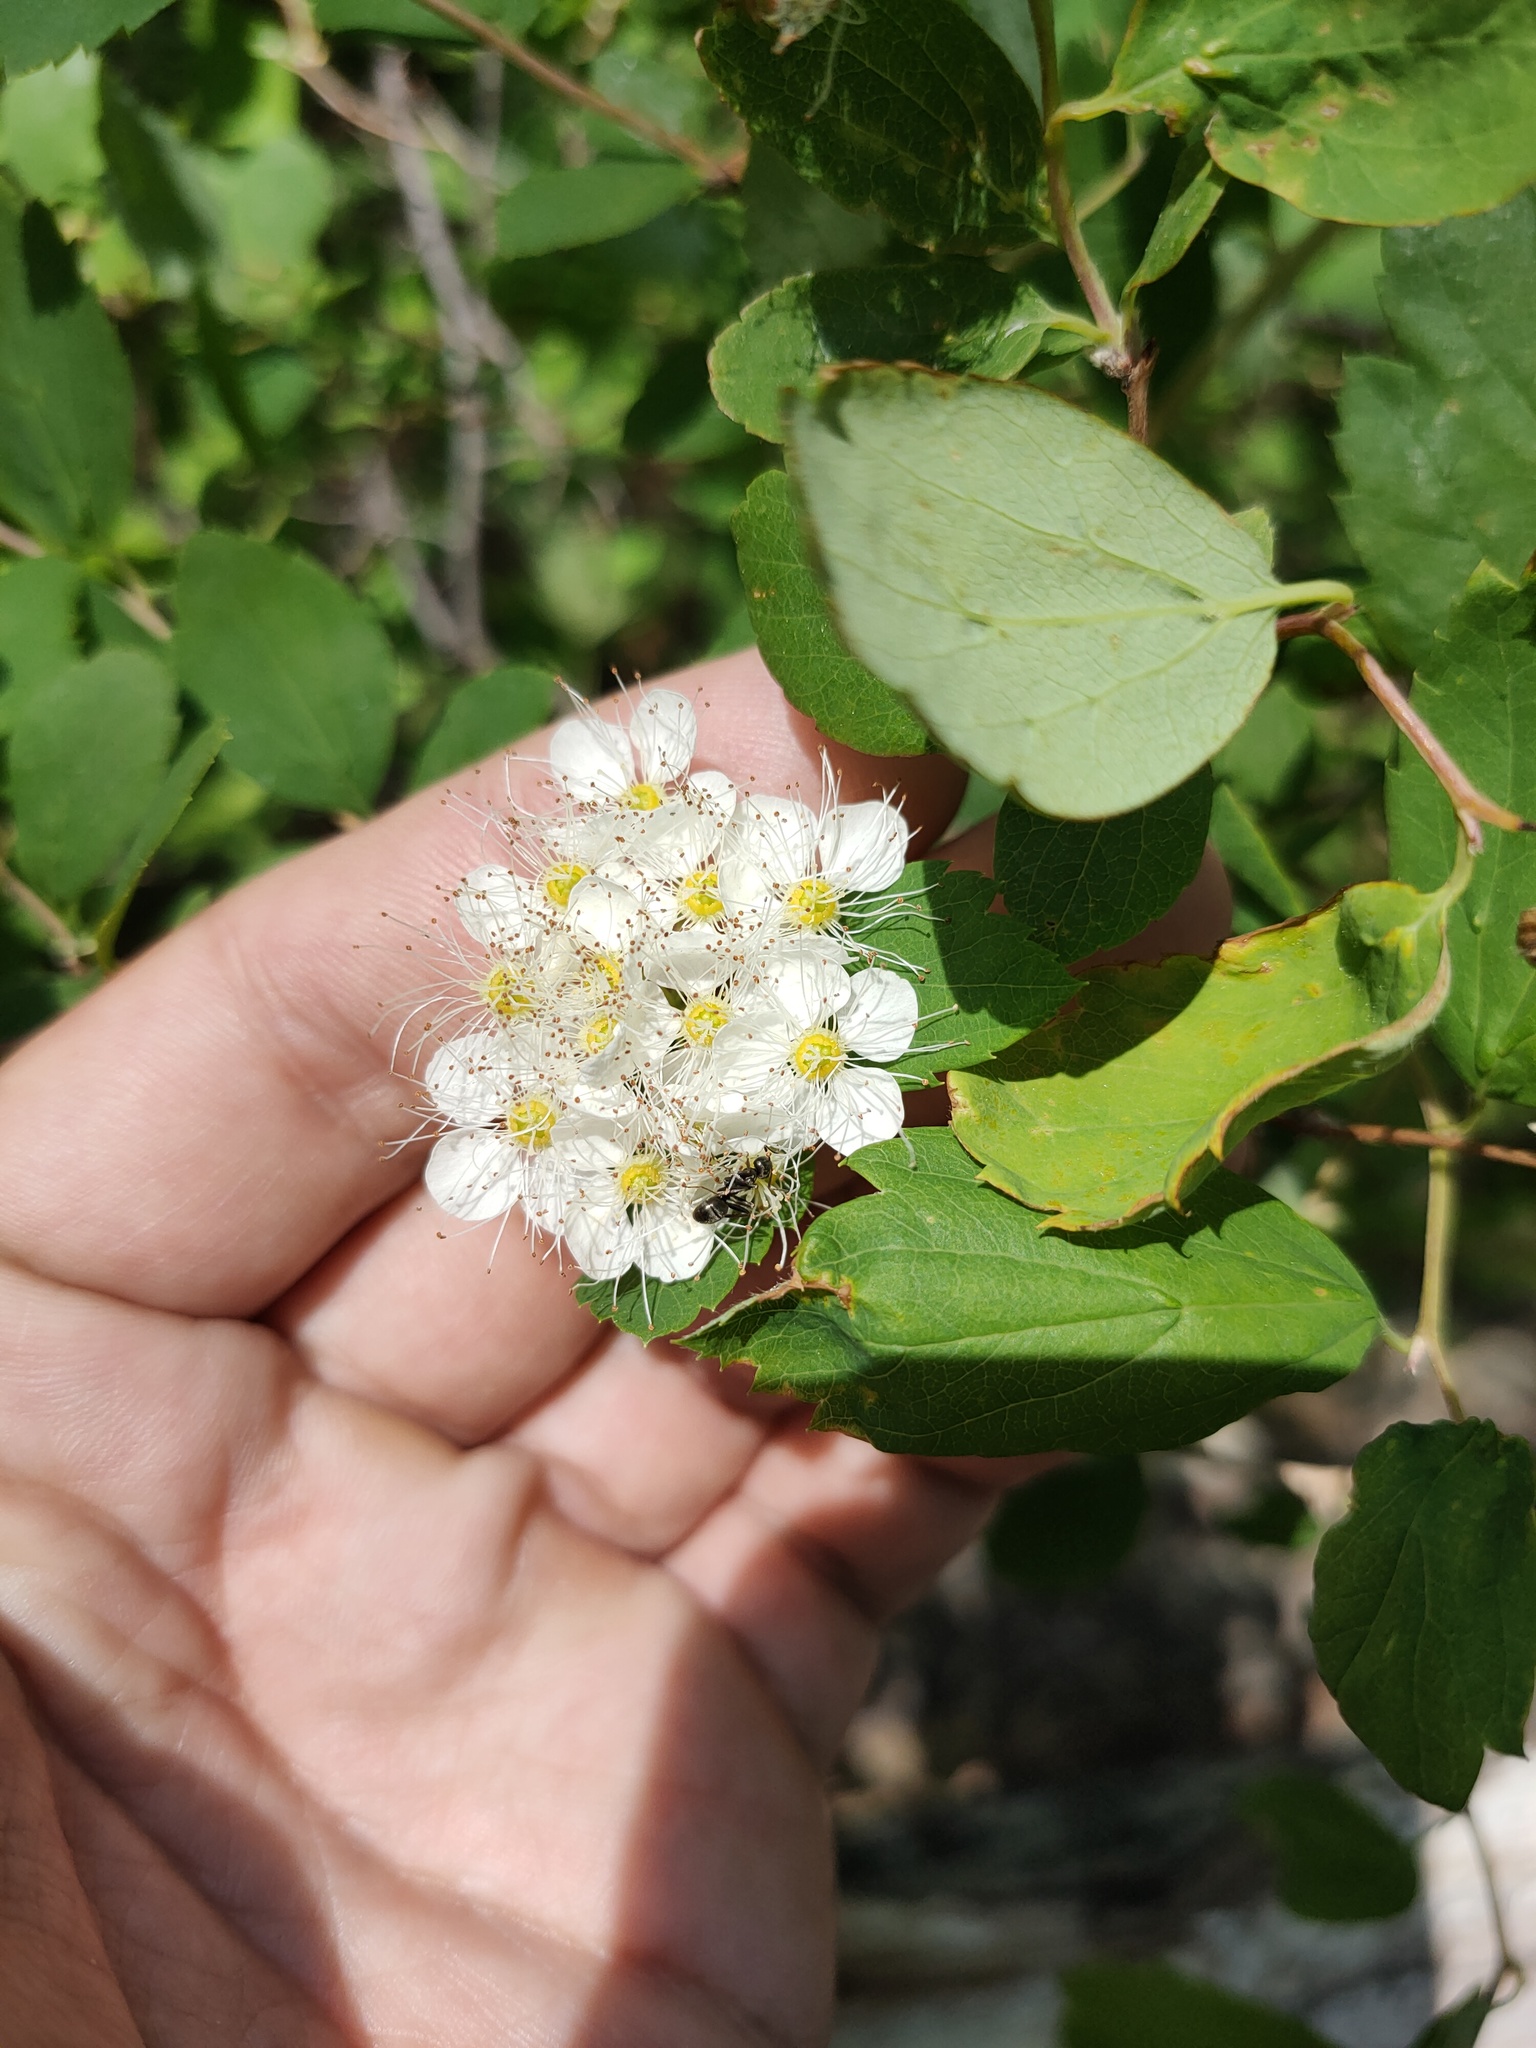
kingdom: Plantae
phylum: Tracheophyta
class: Magnoliopsida
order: Rosales
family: Rosaceae
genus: Spiraea
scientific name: Spiraea media
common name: Russian spiraea
